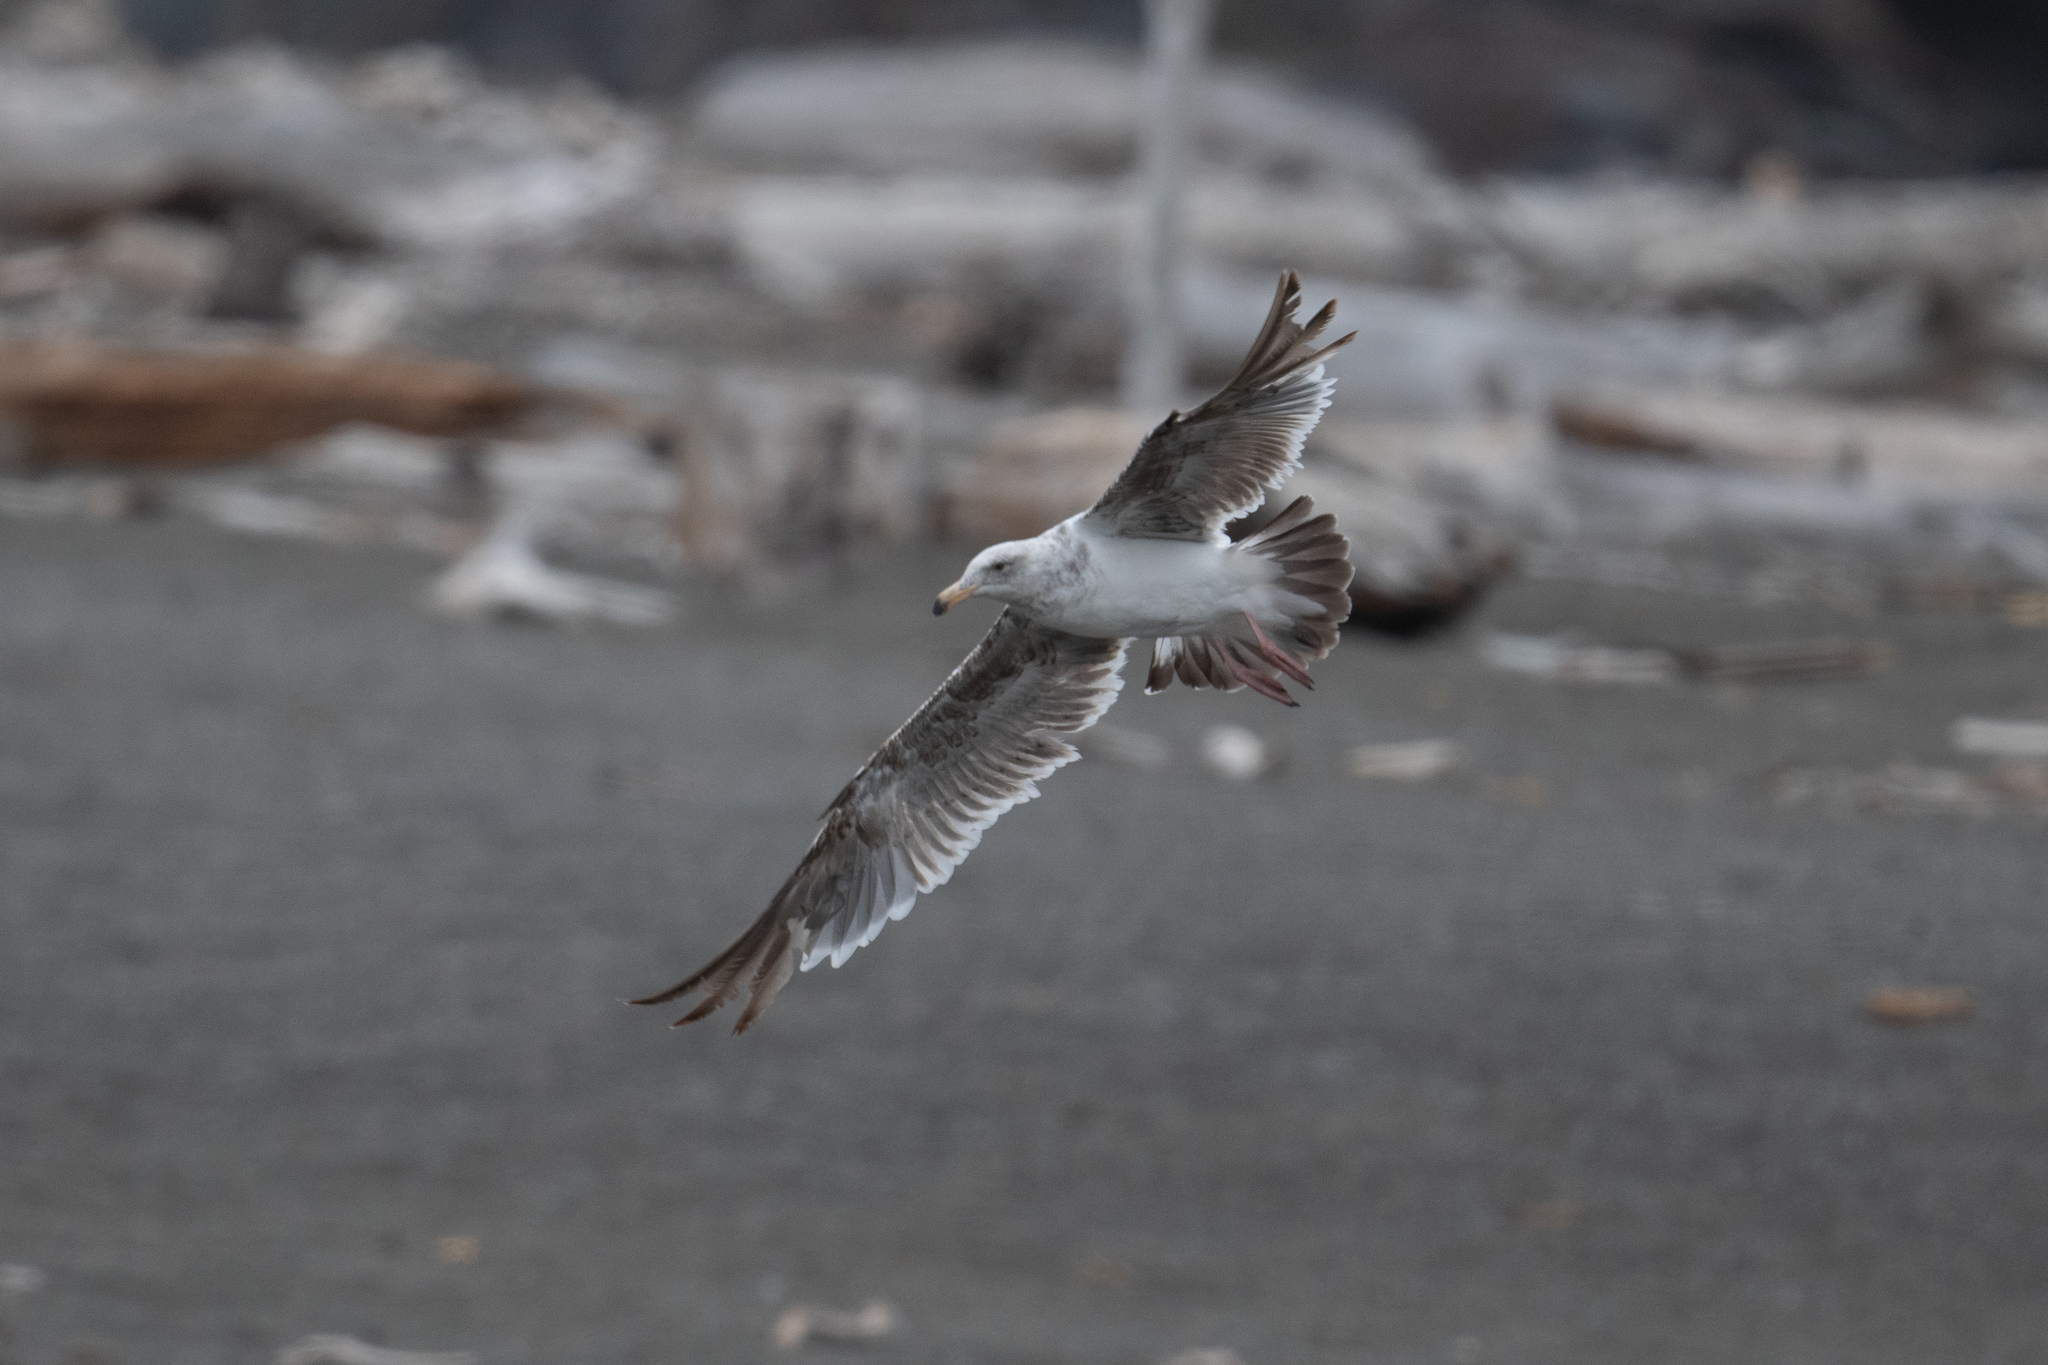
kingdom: Animalia
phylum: Chordata
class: Aves
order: Charadriiformes
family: Laridae
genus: Larus
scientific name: Larus occidentalis
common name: Western gull
